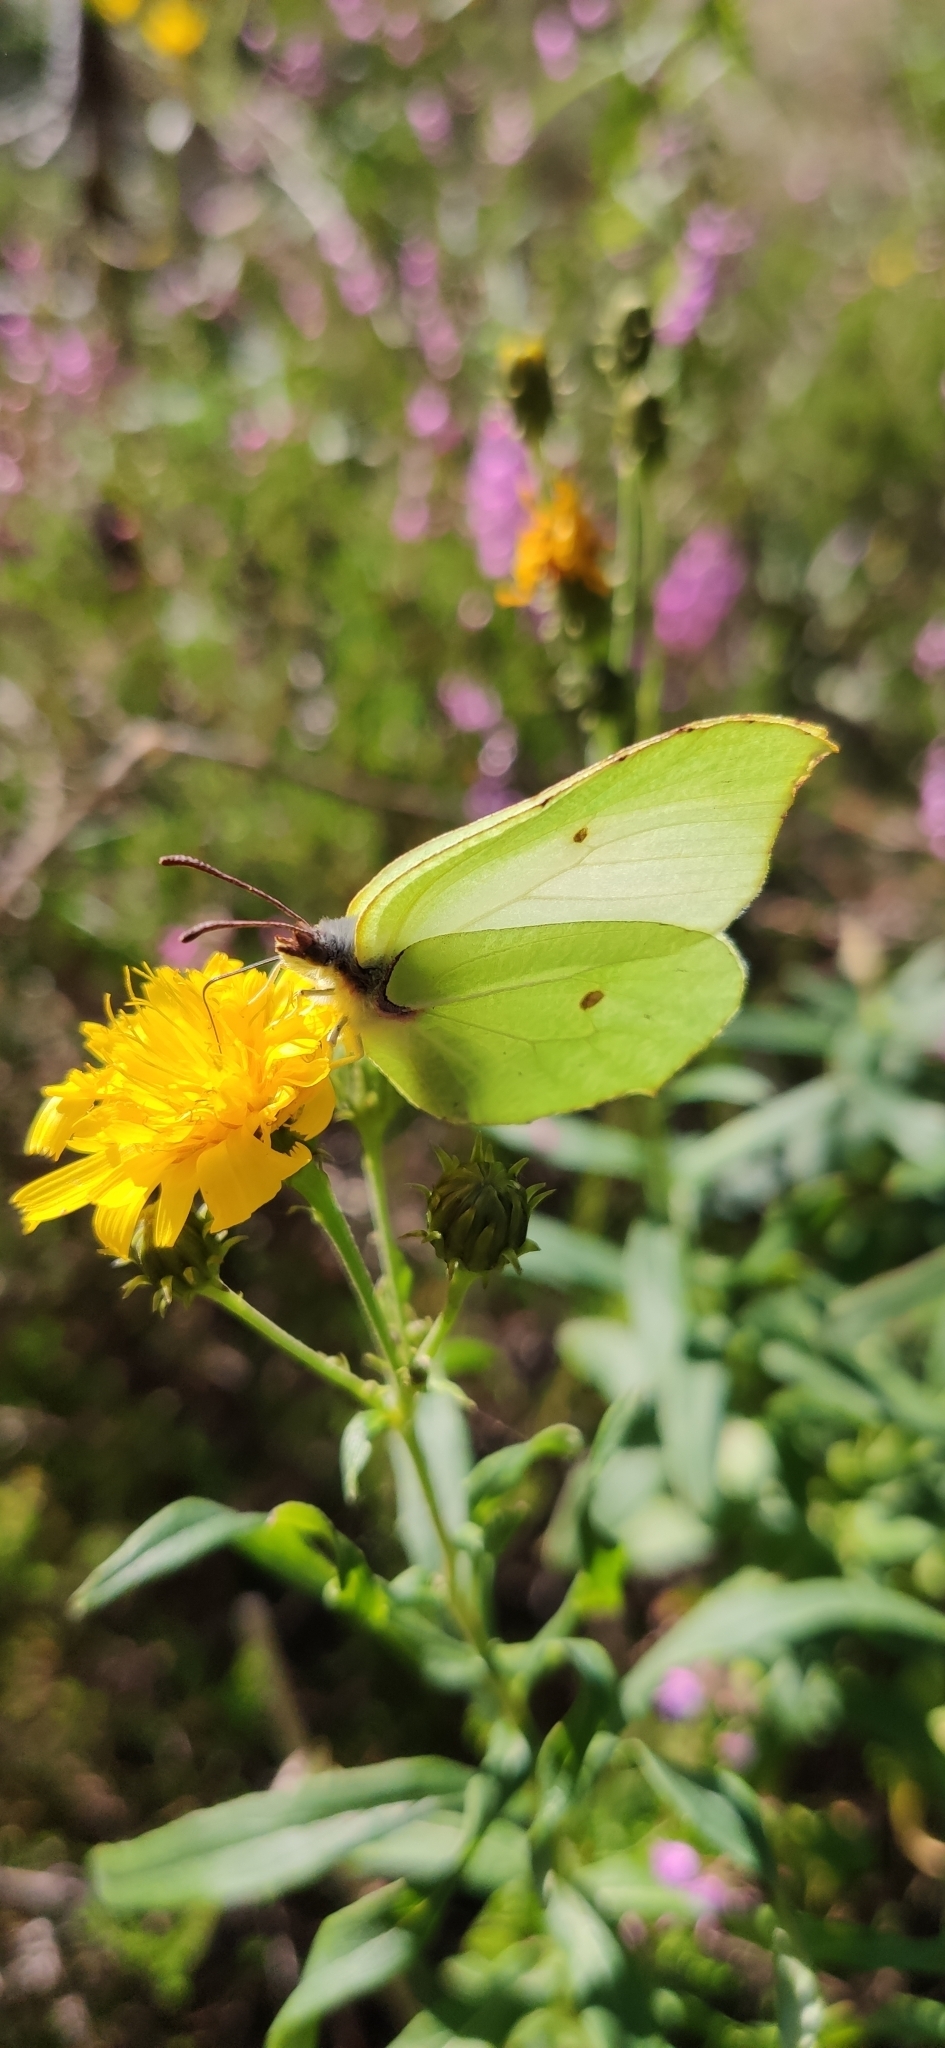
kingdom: Animalia
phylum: Arthropoda
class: Insecta
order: Lepidoptera
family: Pieridae
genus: Gonepteryx
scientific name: Gonepteryx rhamni
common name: Brimstone
